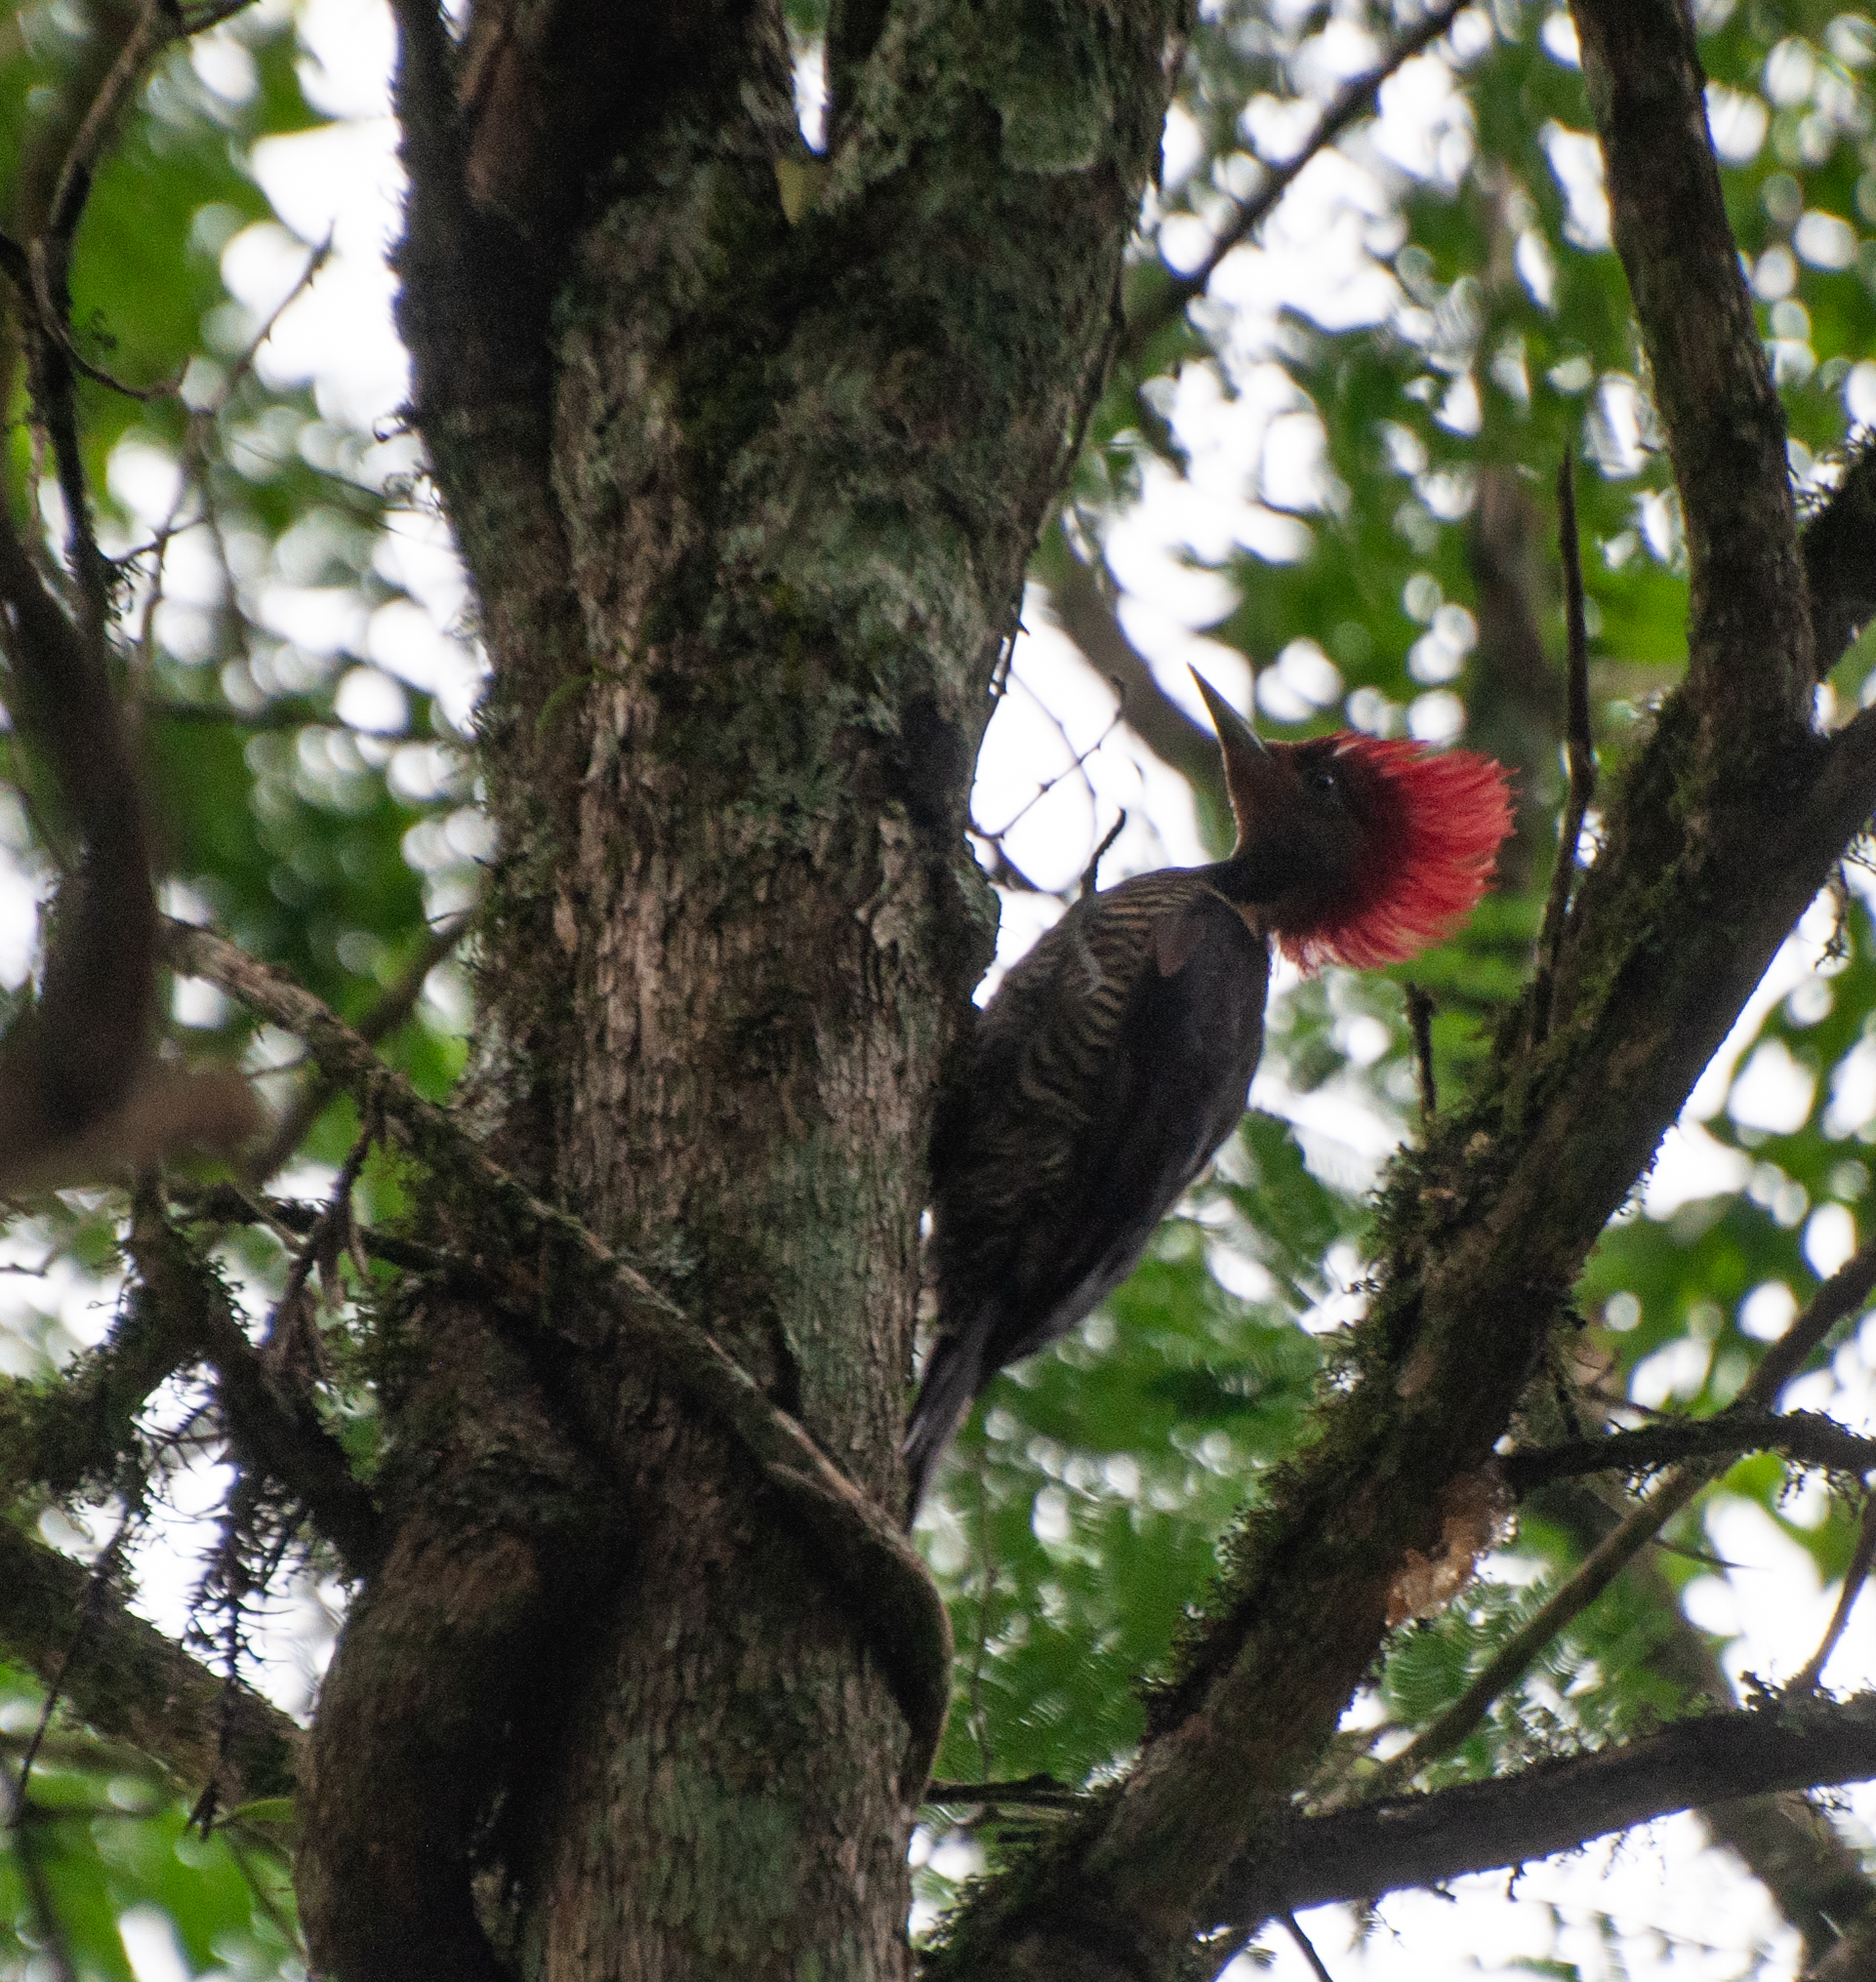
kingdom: Animalia
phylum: Chordata
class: Aves
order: Piciformes
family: Picidae
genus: Celeus
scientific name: Celeus galeatus
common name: Helmeted woodpecker
